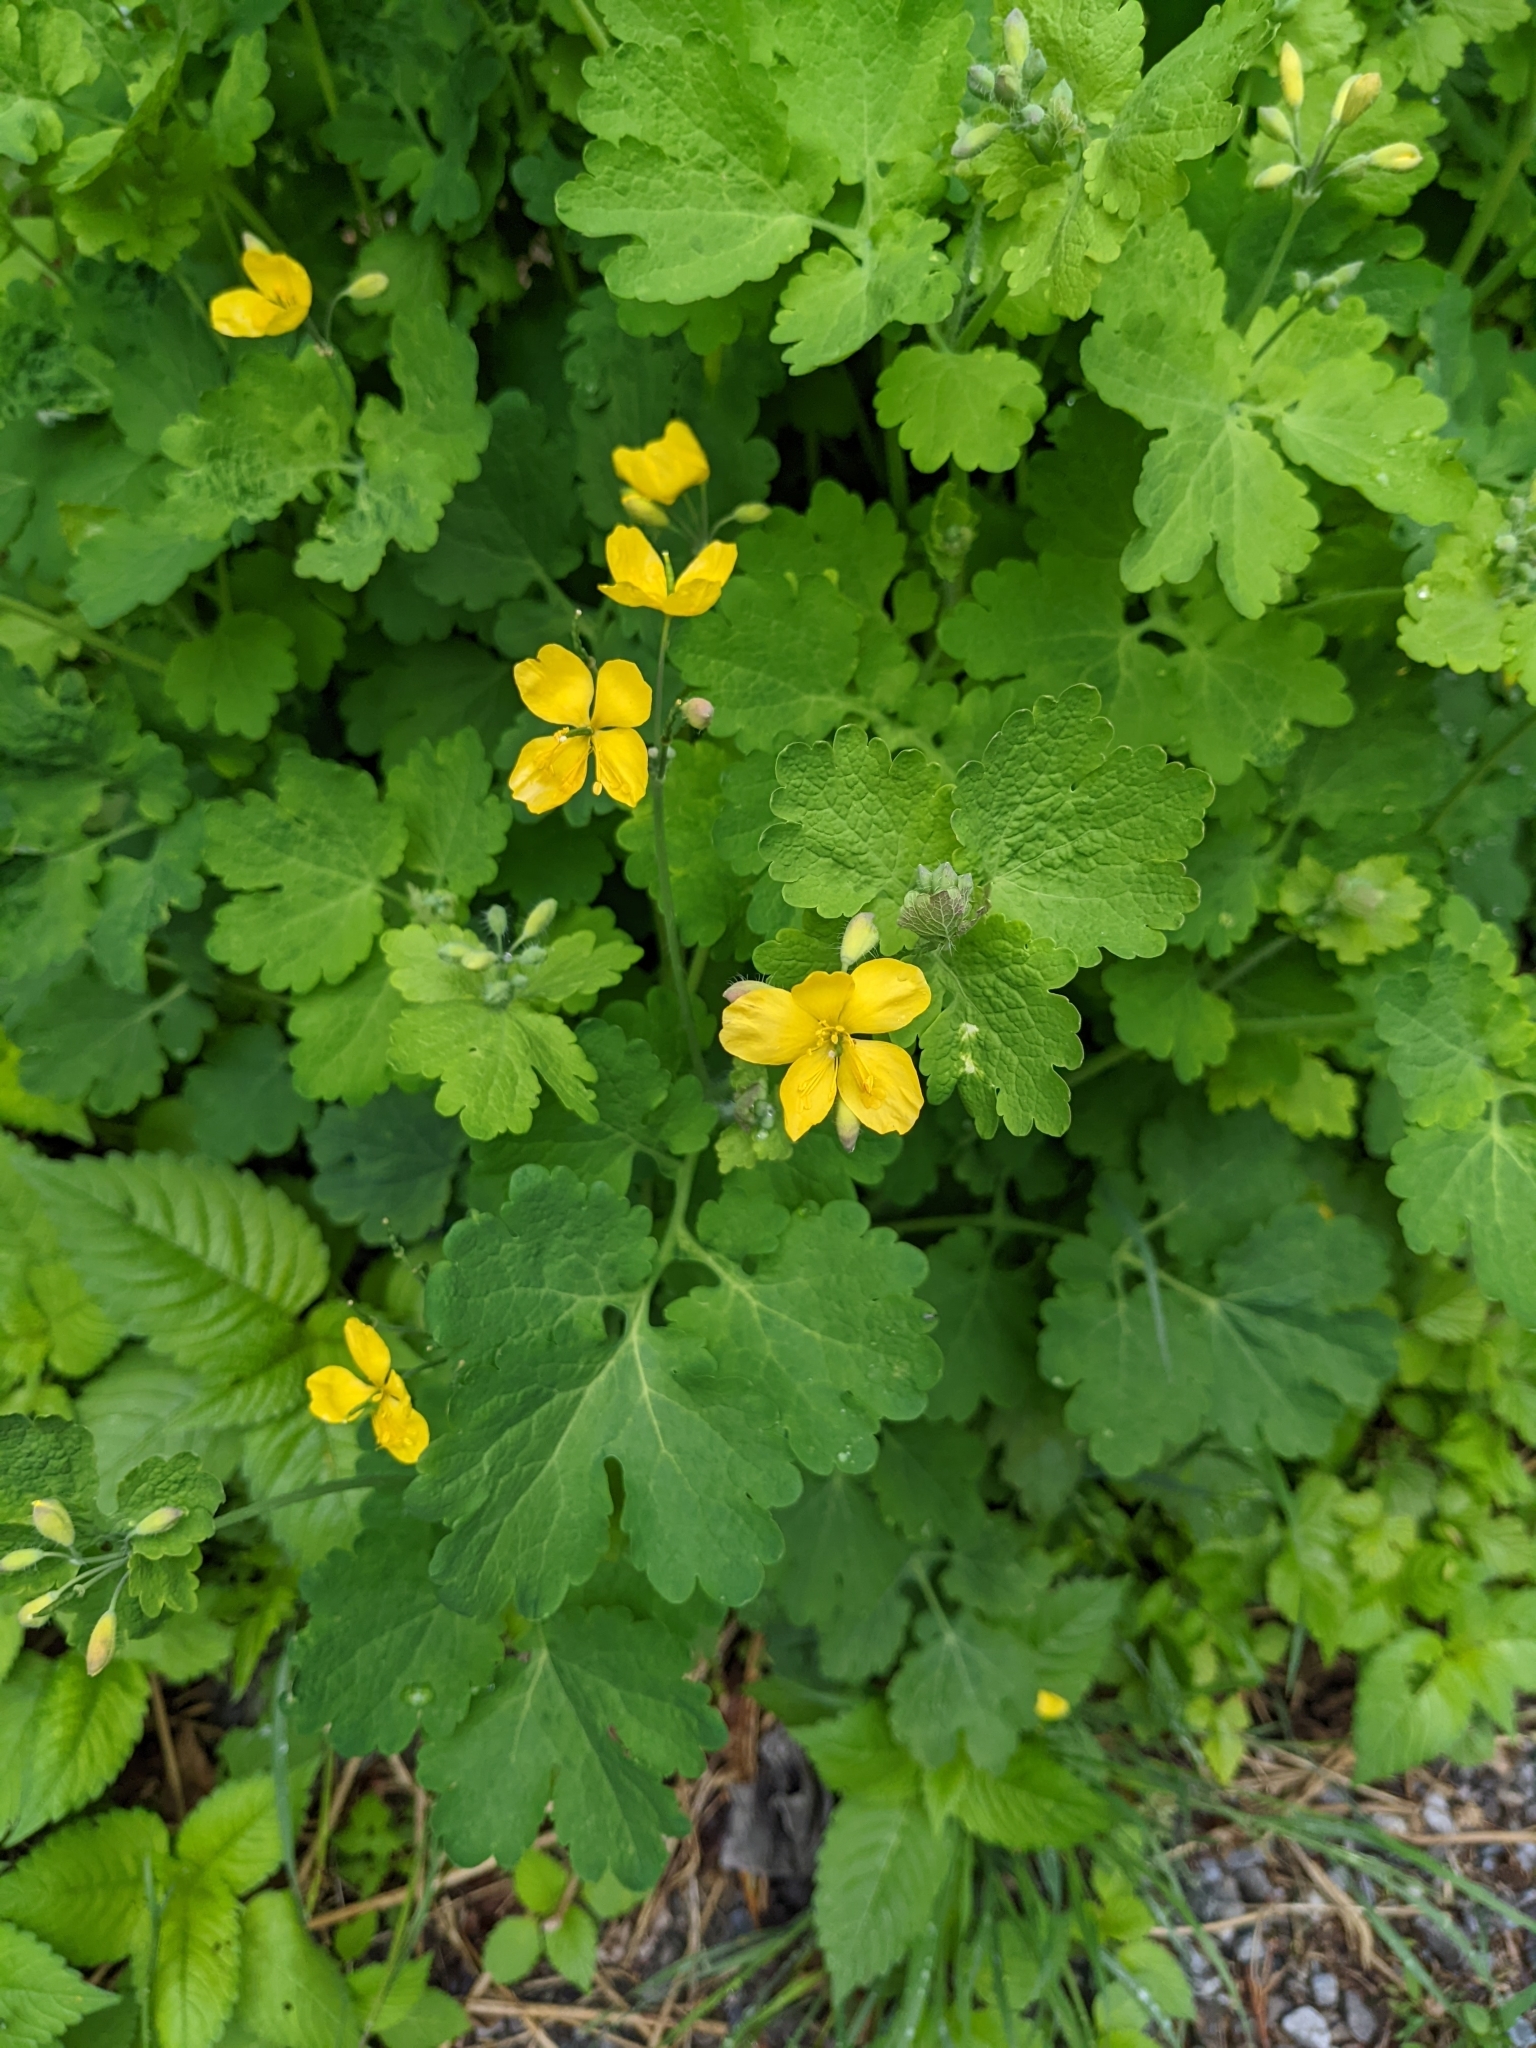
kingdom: Plantae
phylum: Tracheophyta
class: Magnoliopsida
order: Ranunculales
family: Papaveraceae
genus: Chelidonium
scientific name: Chelidonium majus
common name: Greater celandine
